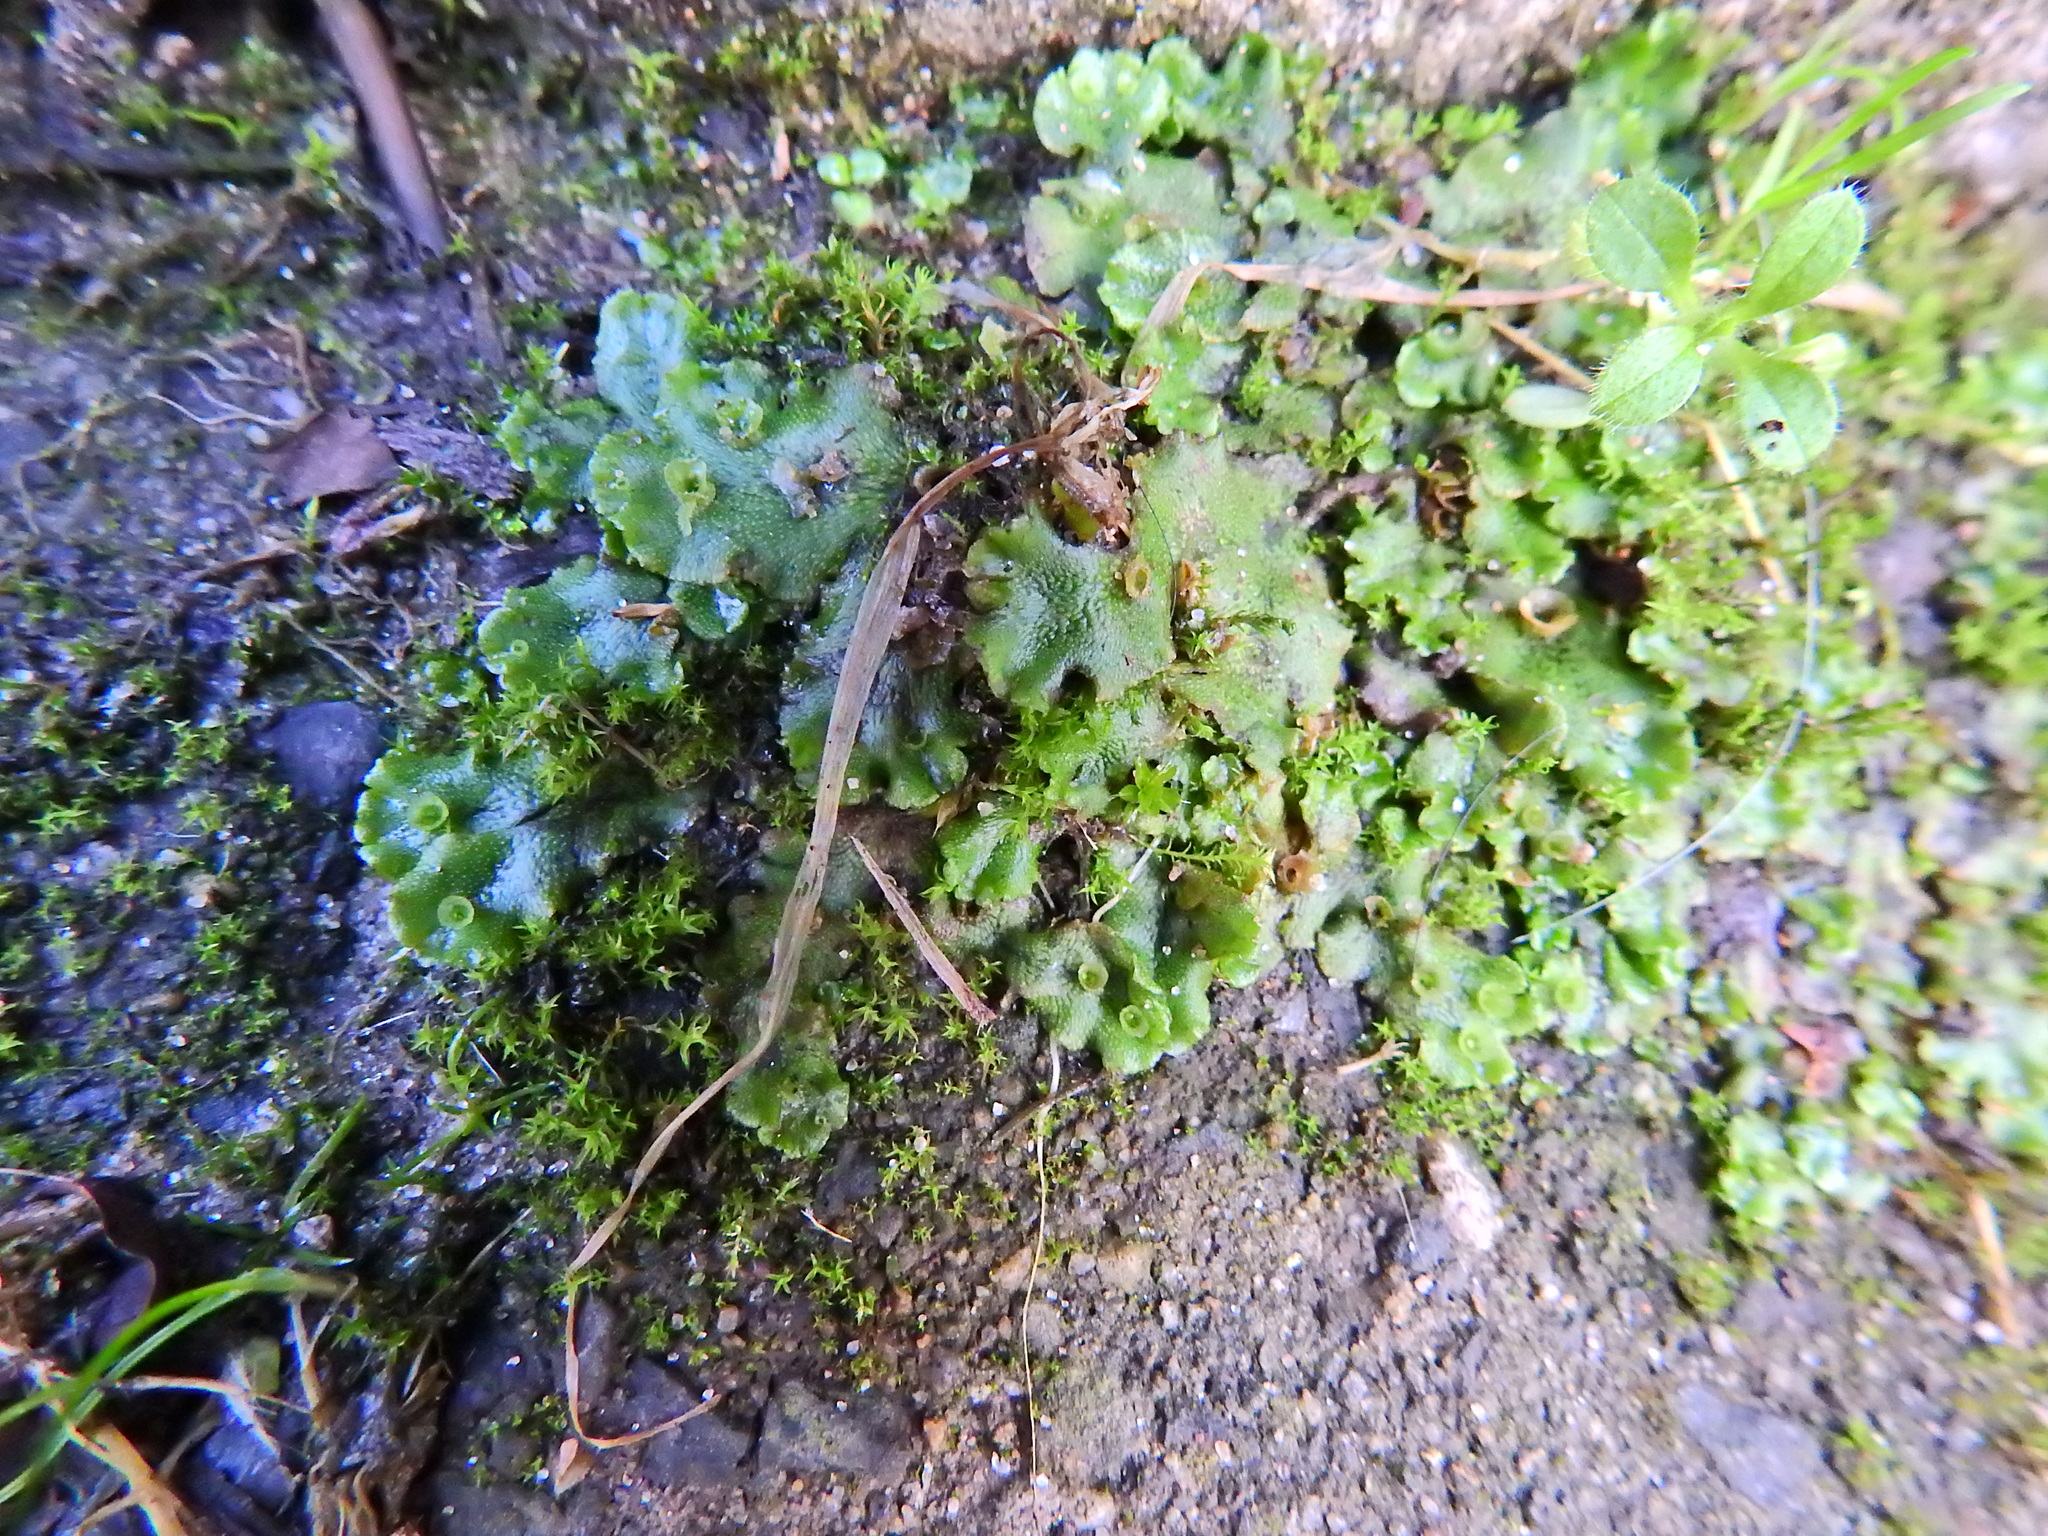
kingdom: Plantae
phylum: Marchantiophyta
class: Marchantiopsida
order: Marchantiales
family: Marchantiaceae
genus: Marchantia
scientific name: Marchantia polymorpha
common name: Common liverwort
